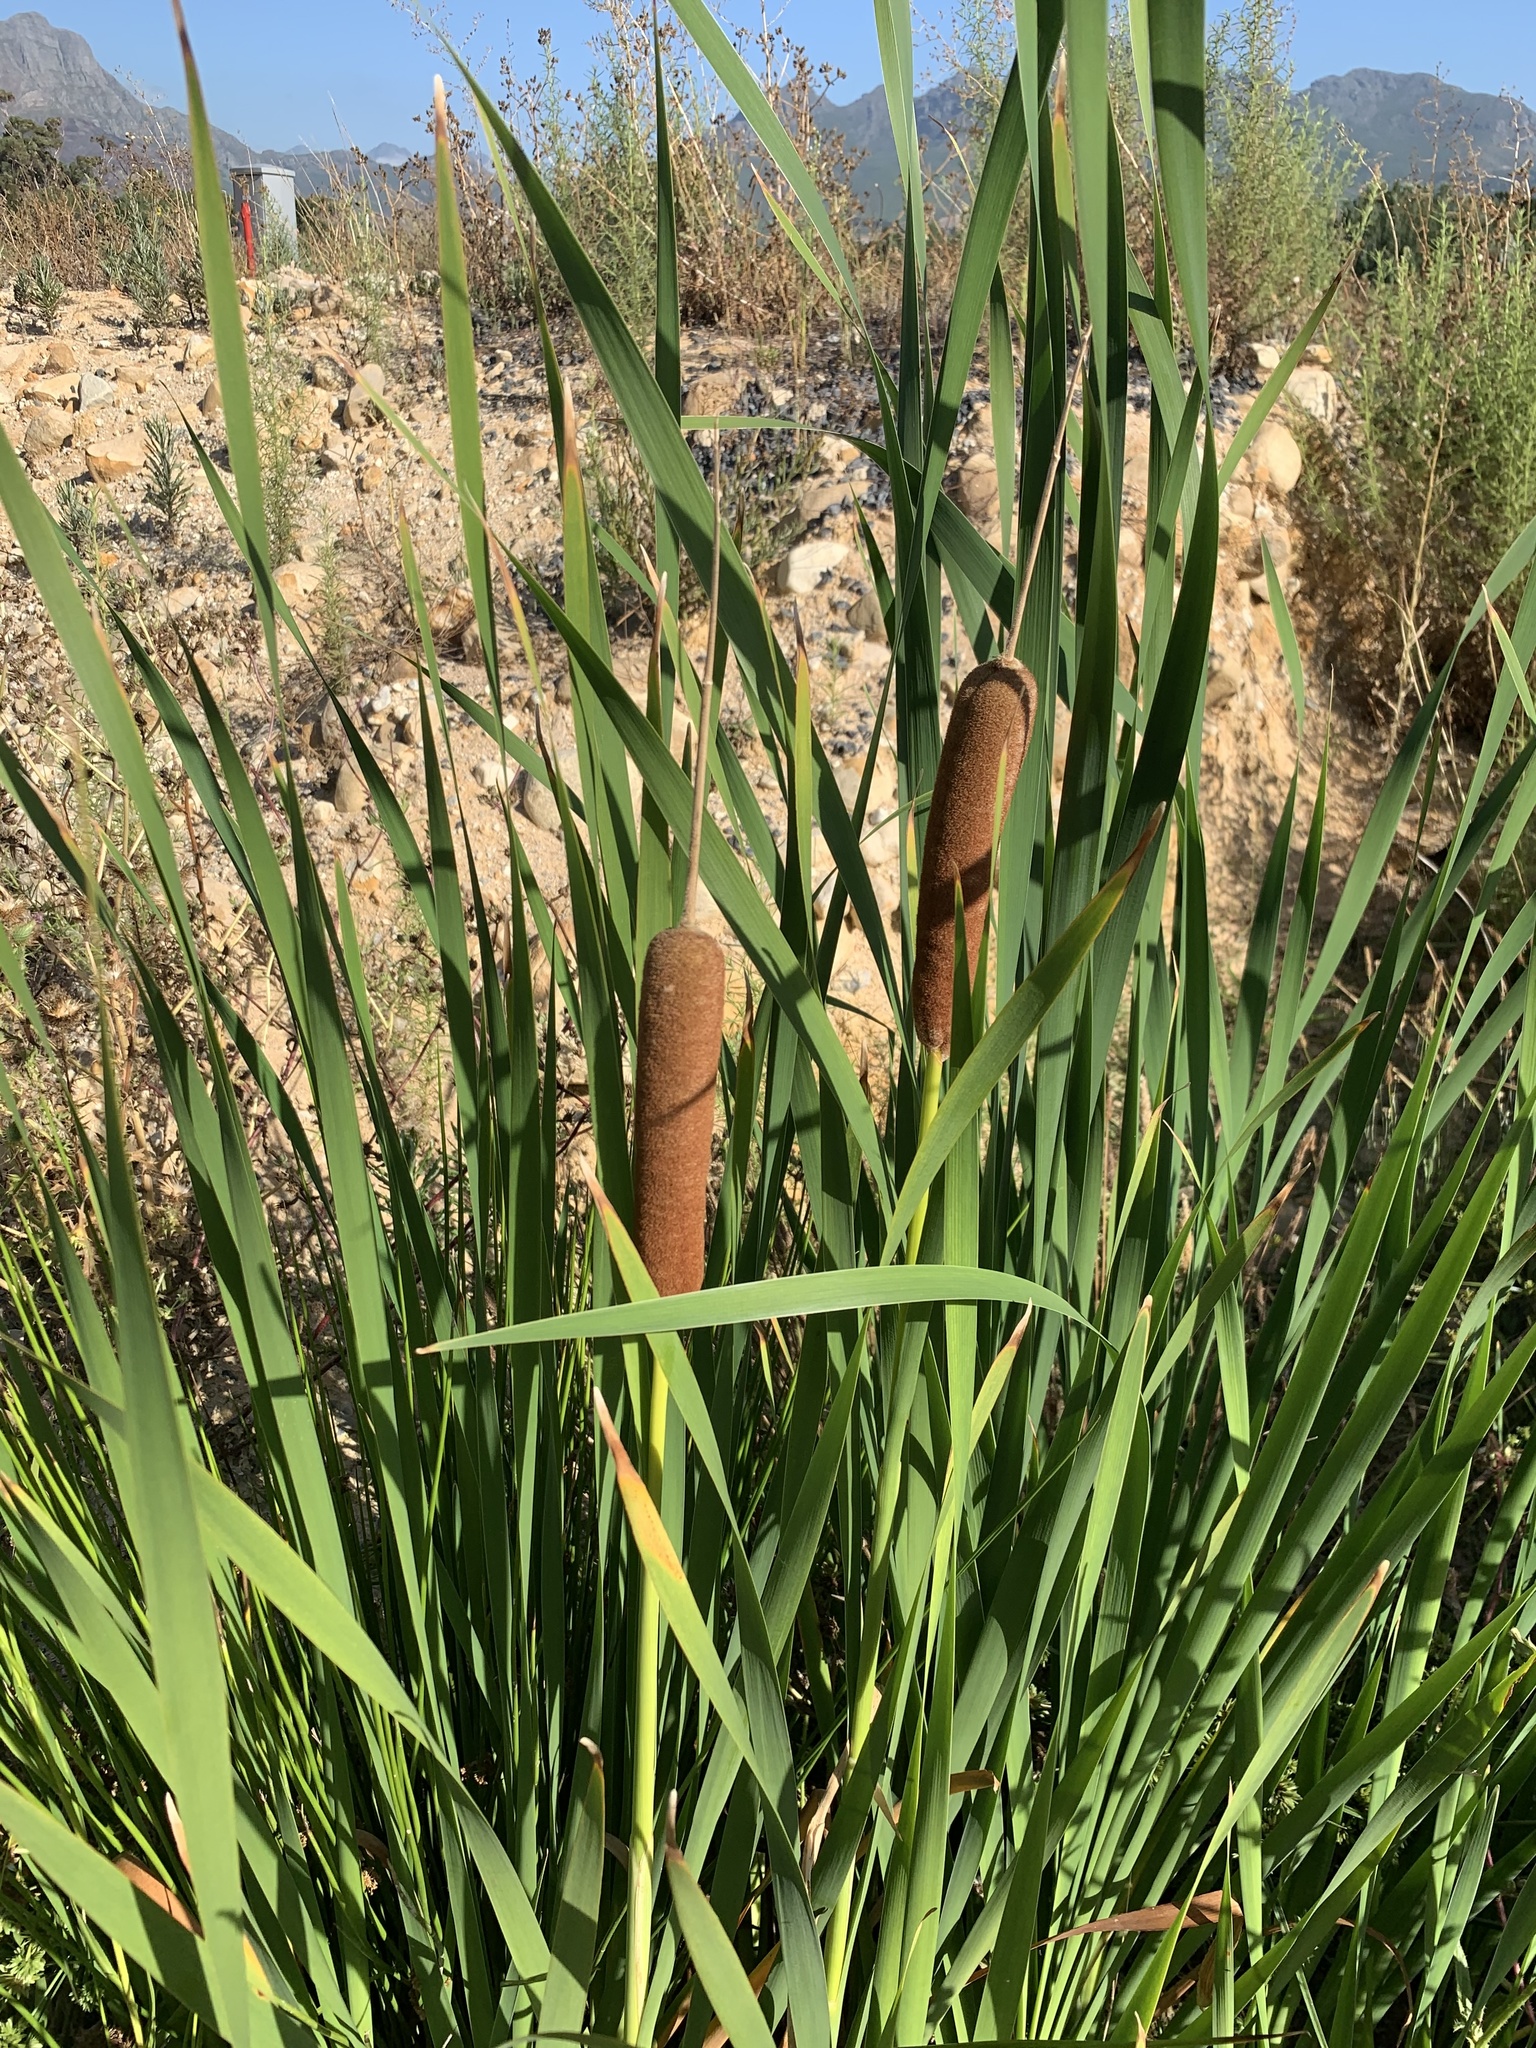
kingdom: Plantae
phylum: Tracheophyta
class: Liliopsida
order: Poales
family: Typhaceae
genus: Typha
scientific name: Typha capensis
